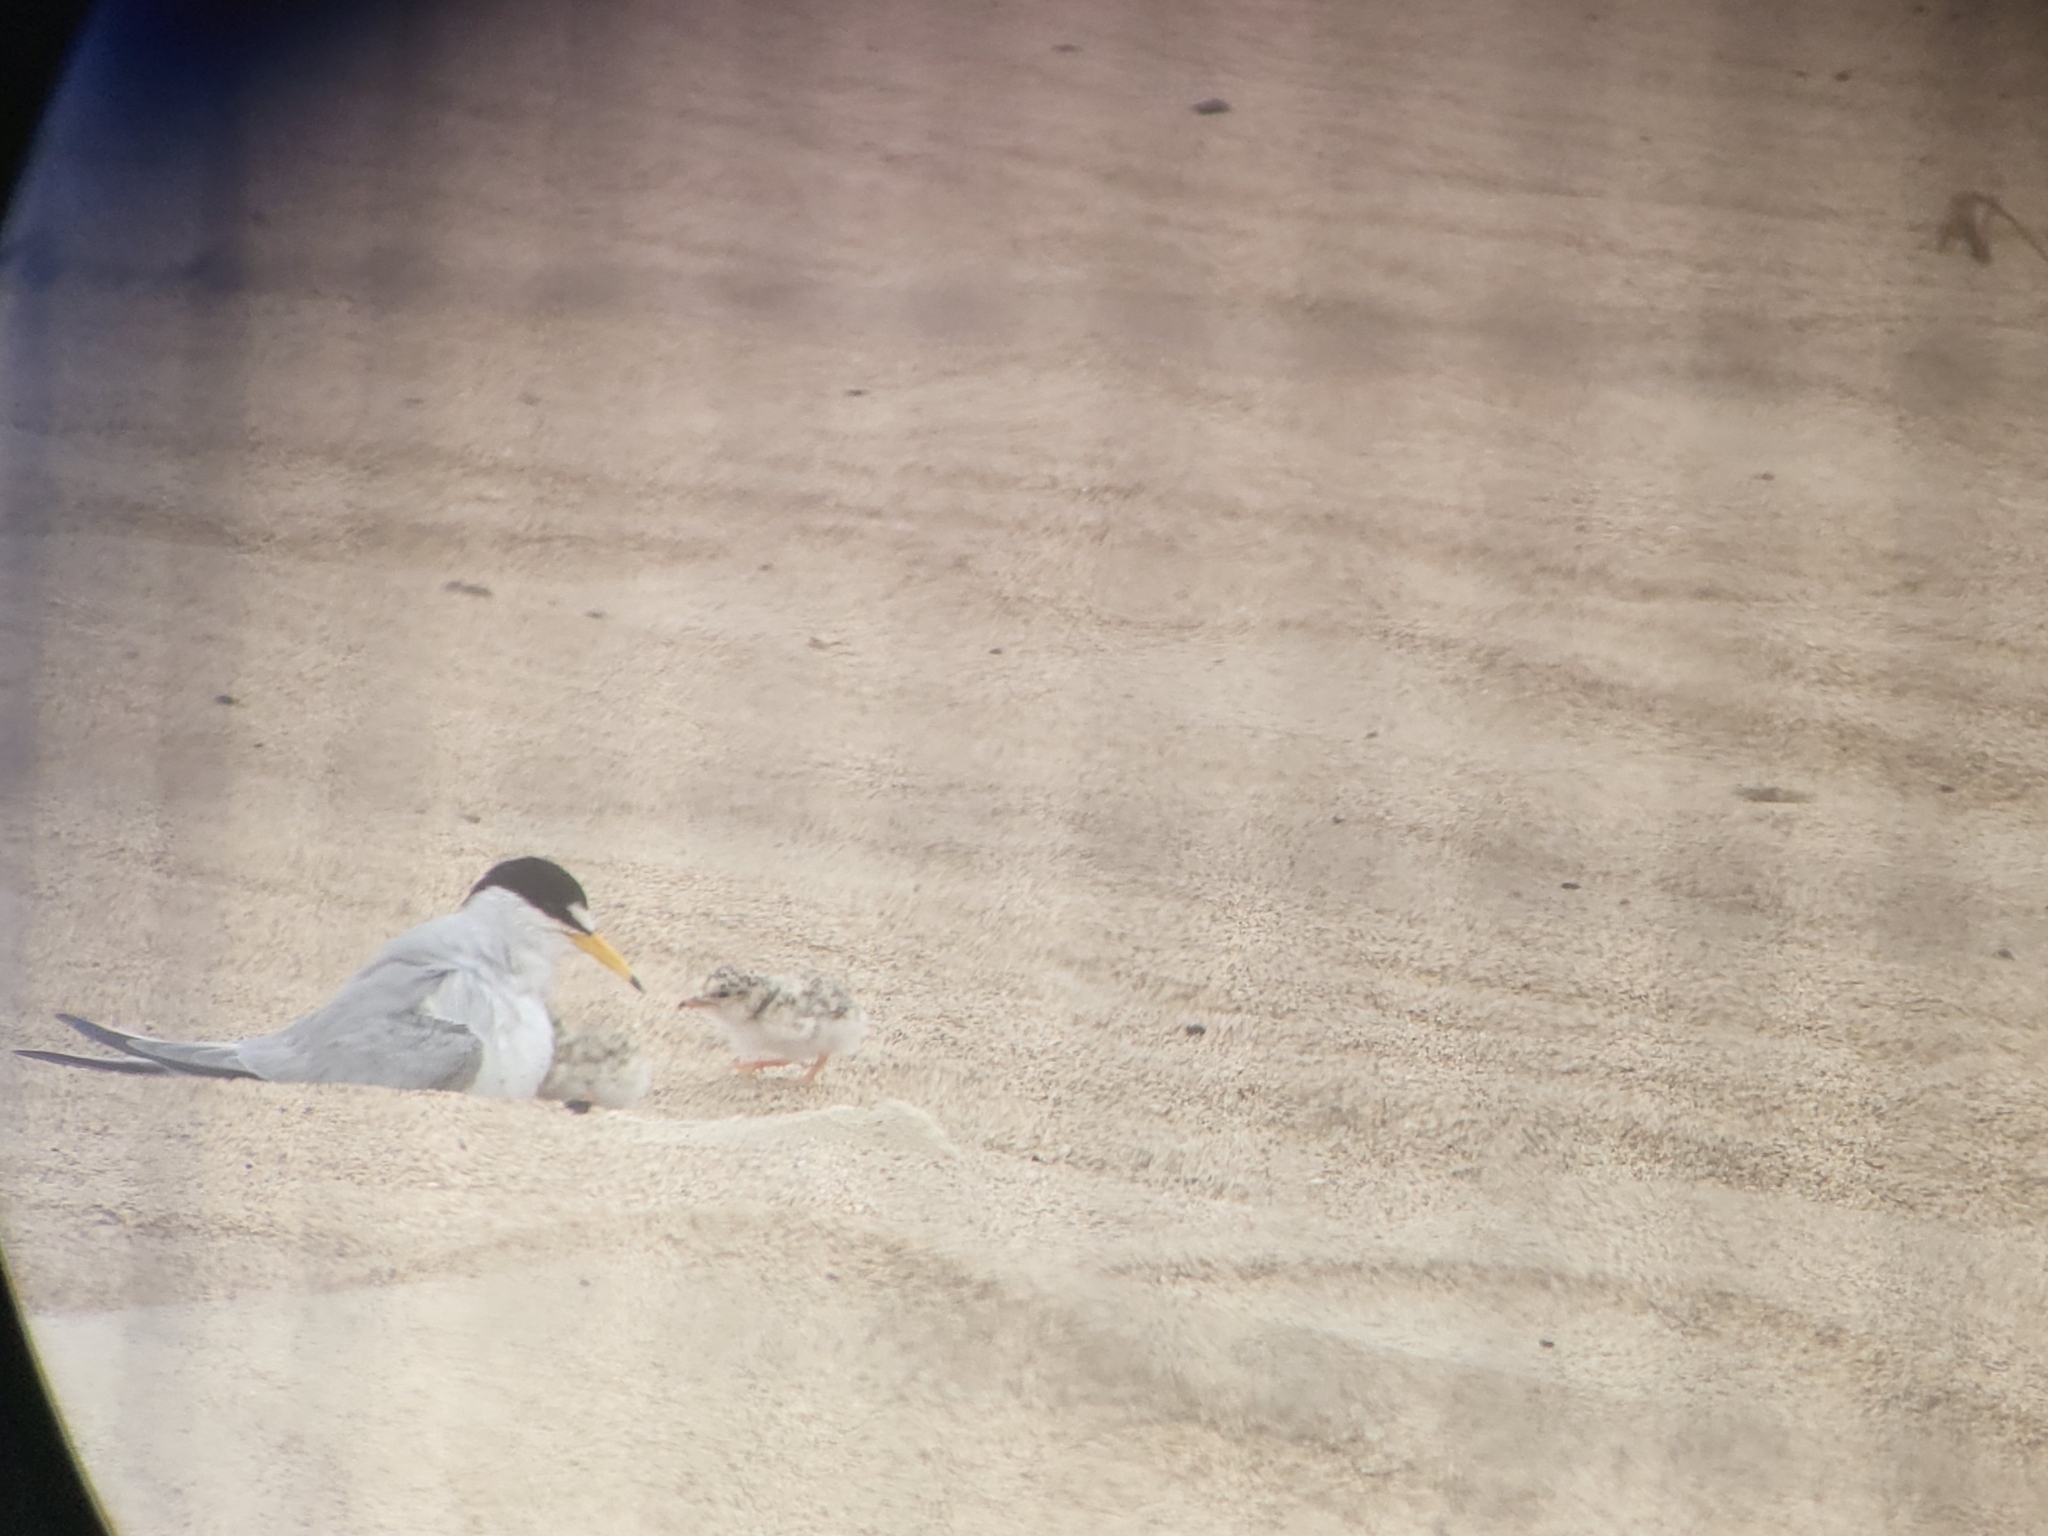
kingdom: Animalia
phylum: Chordata
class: Aves
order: Charadriiformes
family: Laridae
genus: Sternula
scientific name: Sternula antillarum
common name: Least tern
